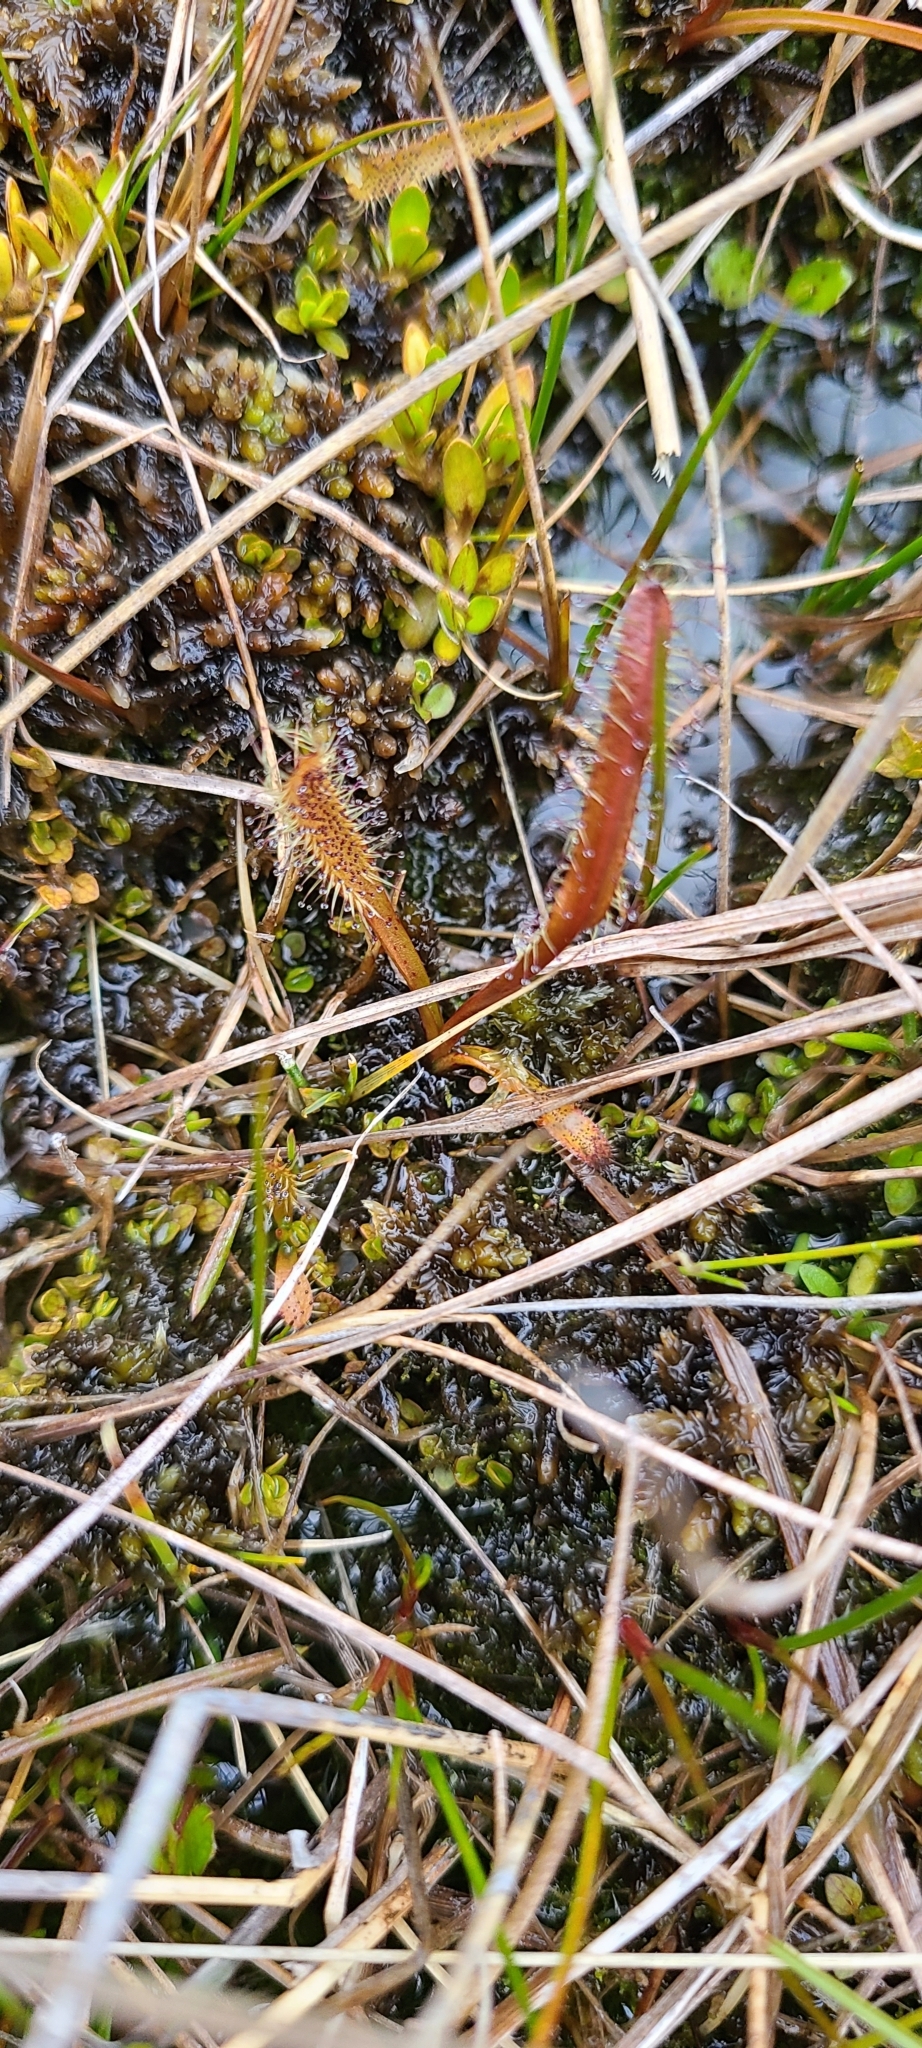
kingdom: Plantae
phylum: Tracheophyta
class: Magnoliopsida
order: Caryophyllales
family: Droseraceae
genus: Drosera
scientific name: Drosera arcturi
